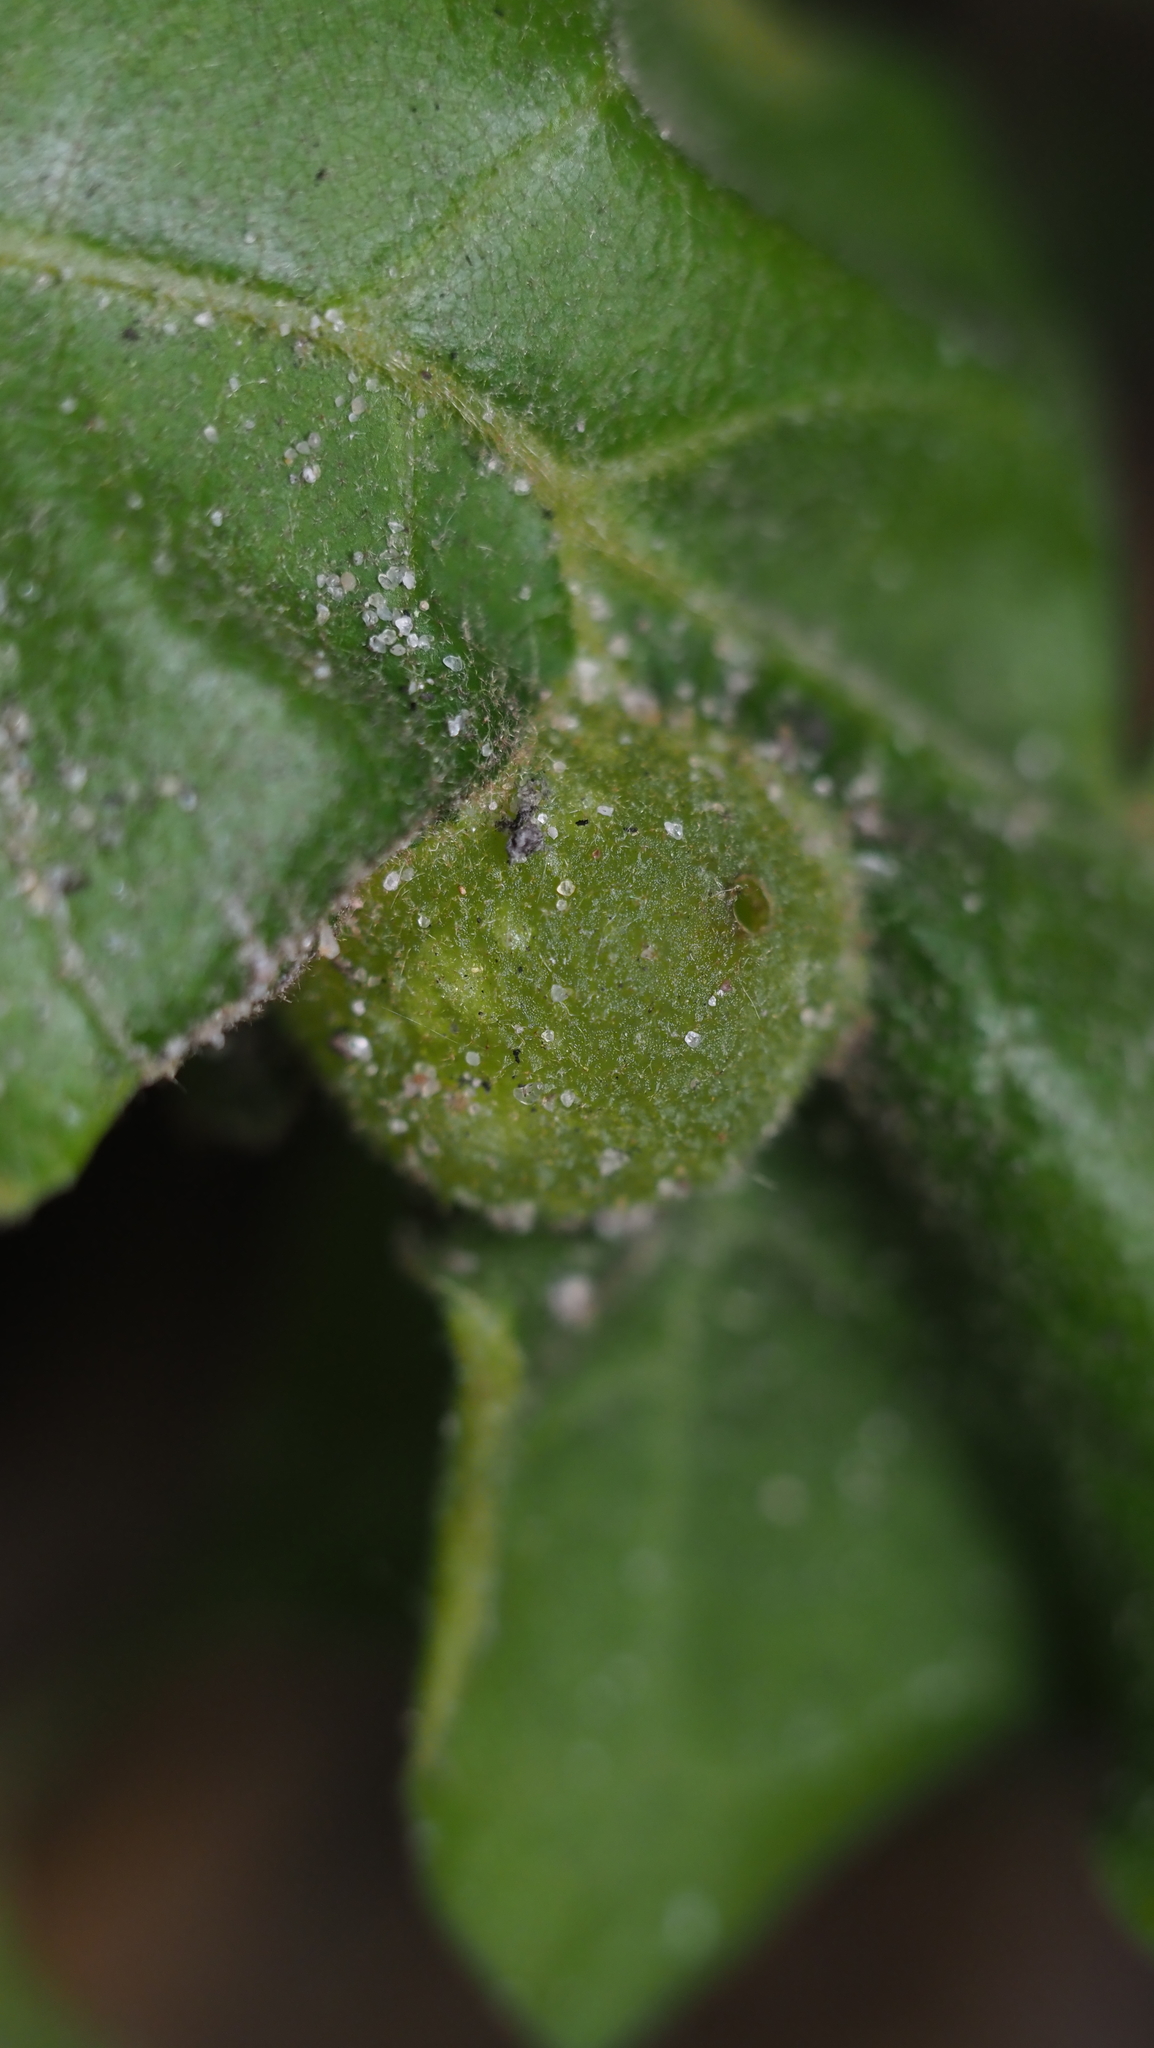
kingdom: Animalia
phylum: Arthropoda
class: Insecta
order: Hymenoptera
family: Cynipidae
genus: Dryocosmus
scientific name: Dryocosmus quercuspalustris
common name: Succulent oak gall wasp
